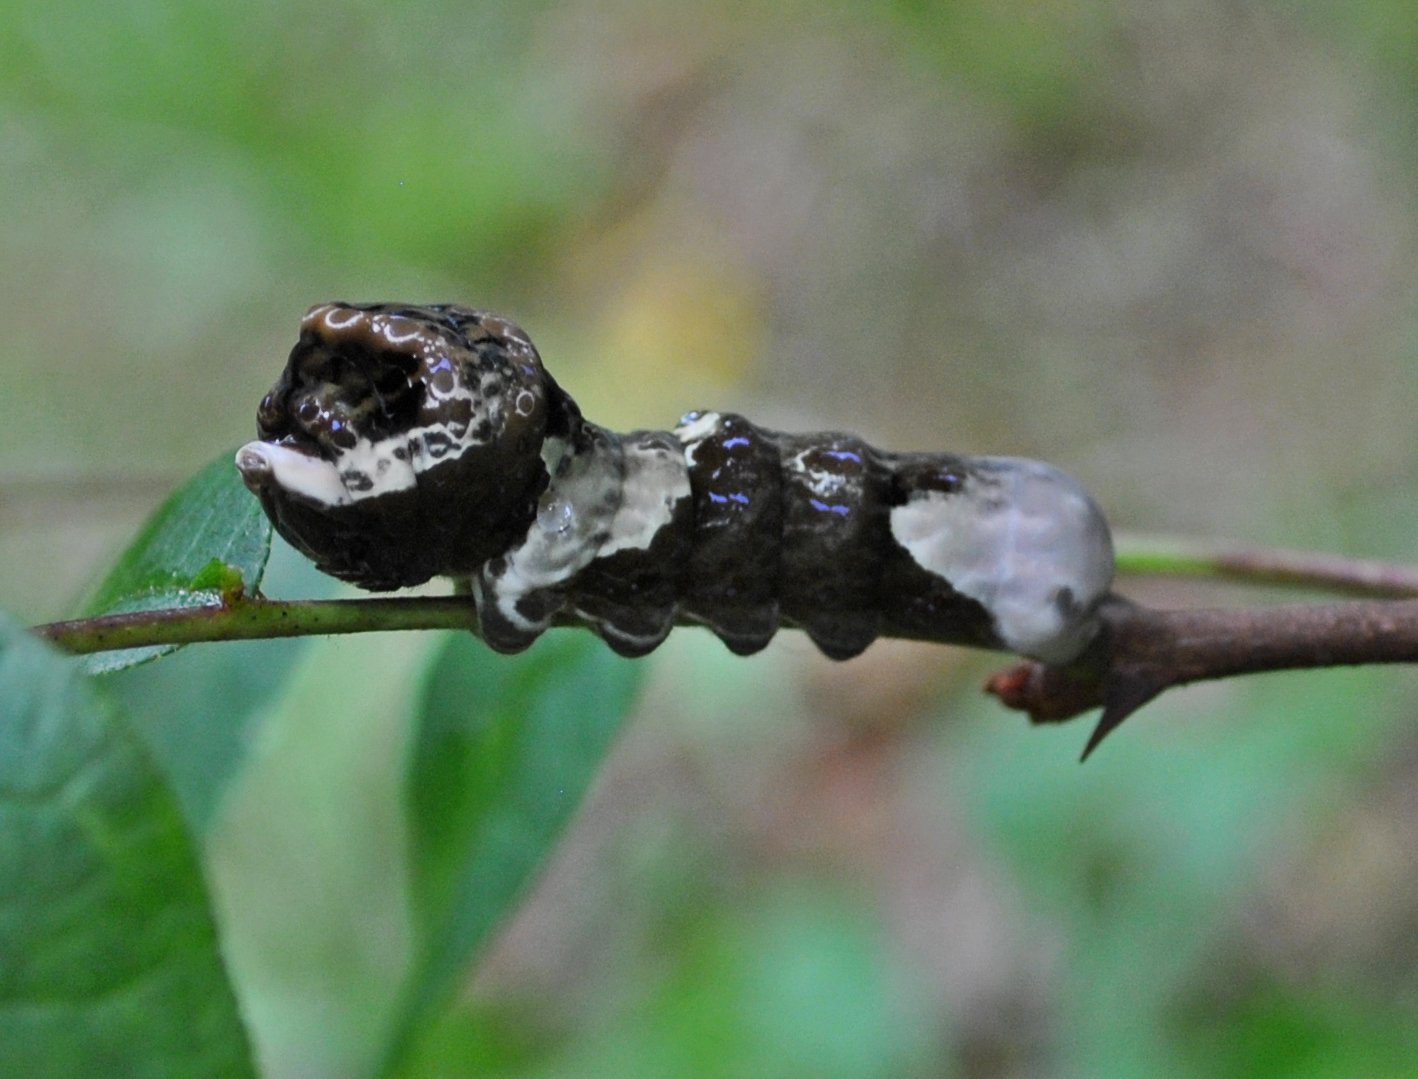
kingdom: Animalia
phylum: Arthropoda
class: Insecta
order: Lepidoptera
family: Papilionidae
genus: Papilio
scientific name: Papilio cresphontes
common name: Giant swallowtail
